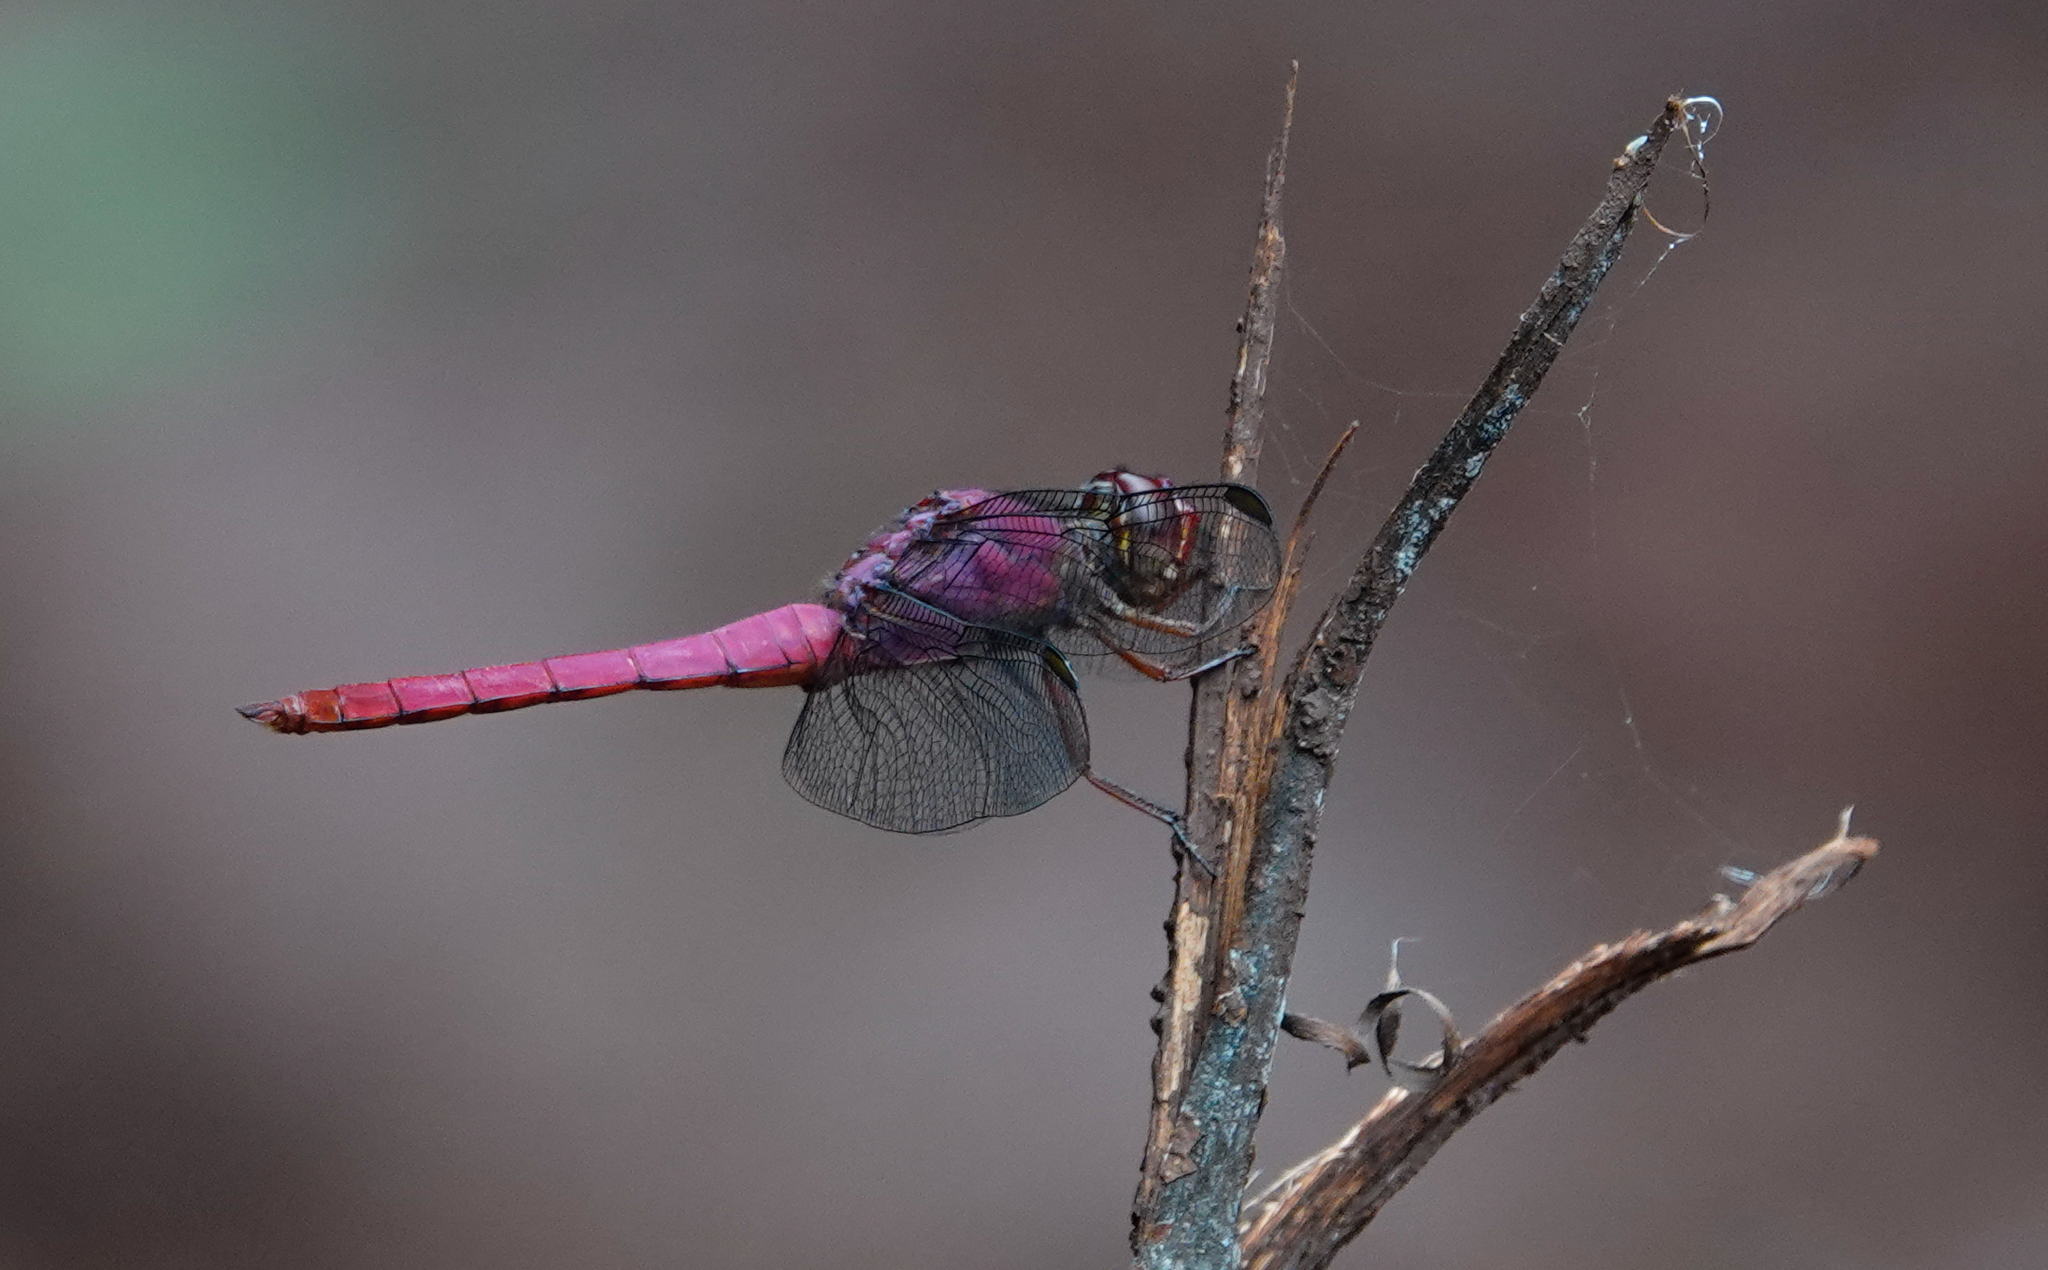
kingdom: Animalia
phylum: Arthropoda
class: Insecta
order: Odonata
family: Libellulidae
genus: Orthemis
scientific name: Orthemis discolor
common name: Carmine skimmer
